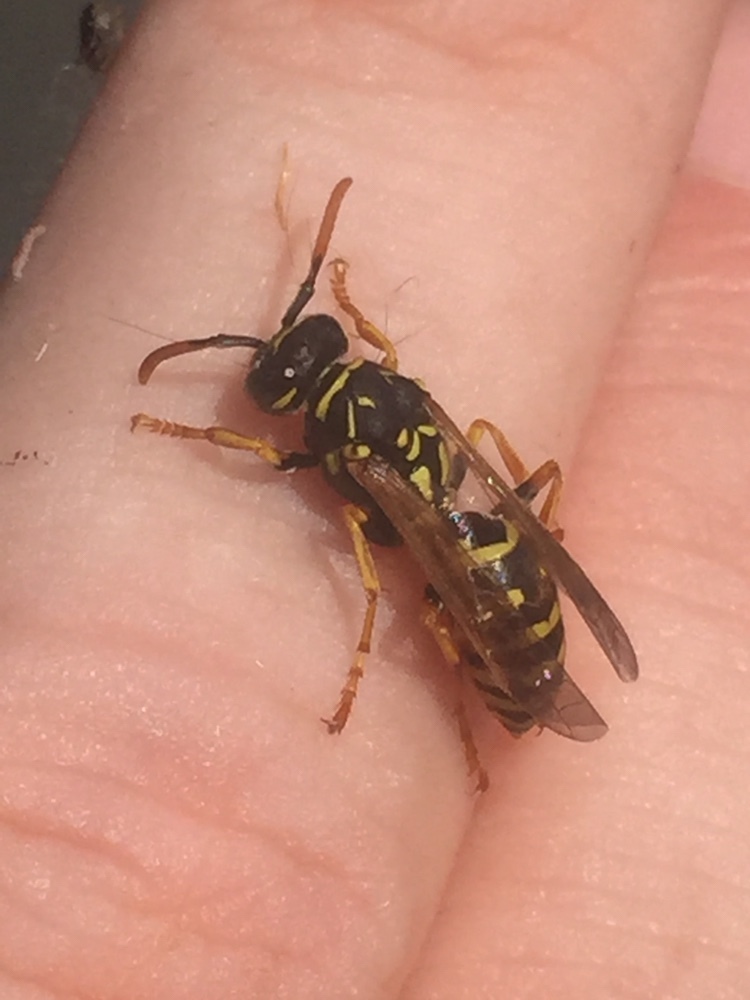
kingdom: Animalia
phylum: Arthropoda
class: Insecta
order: Hymenoptera
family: Eumenidae
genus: Polistes
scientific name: Polistes dominula
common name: Paper wasp
